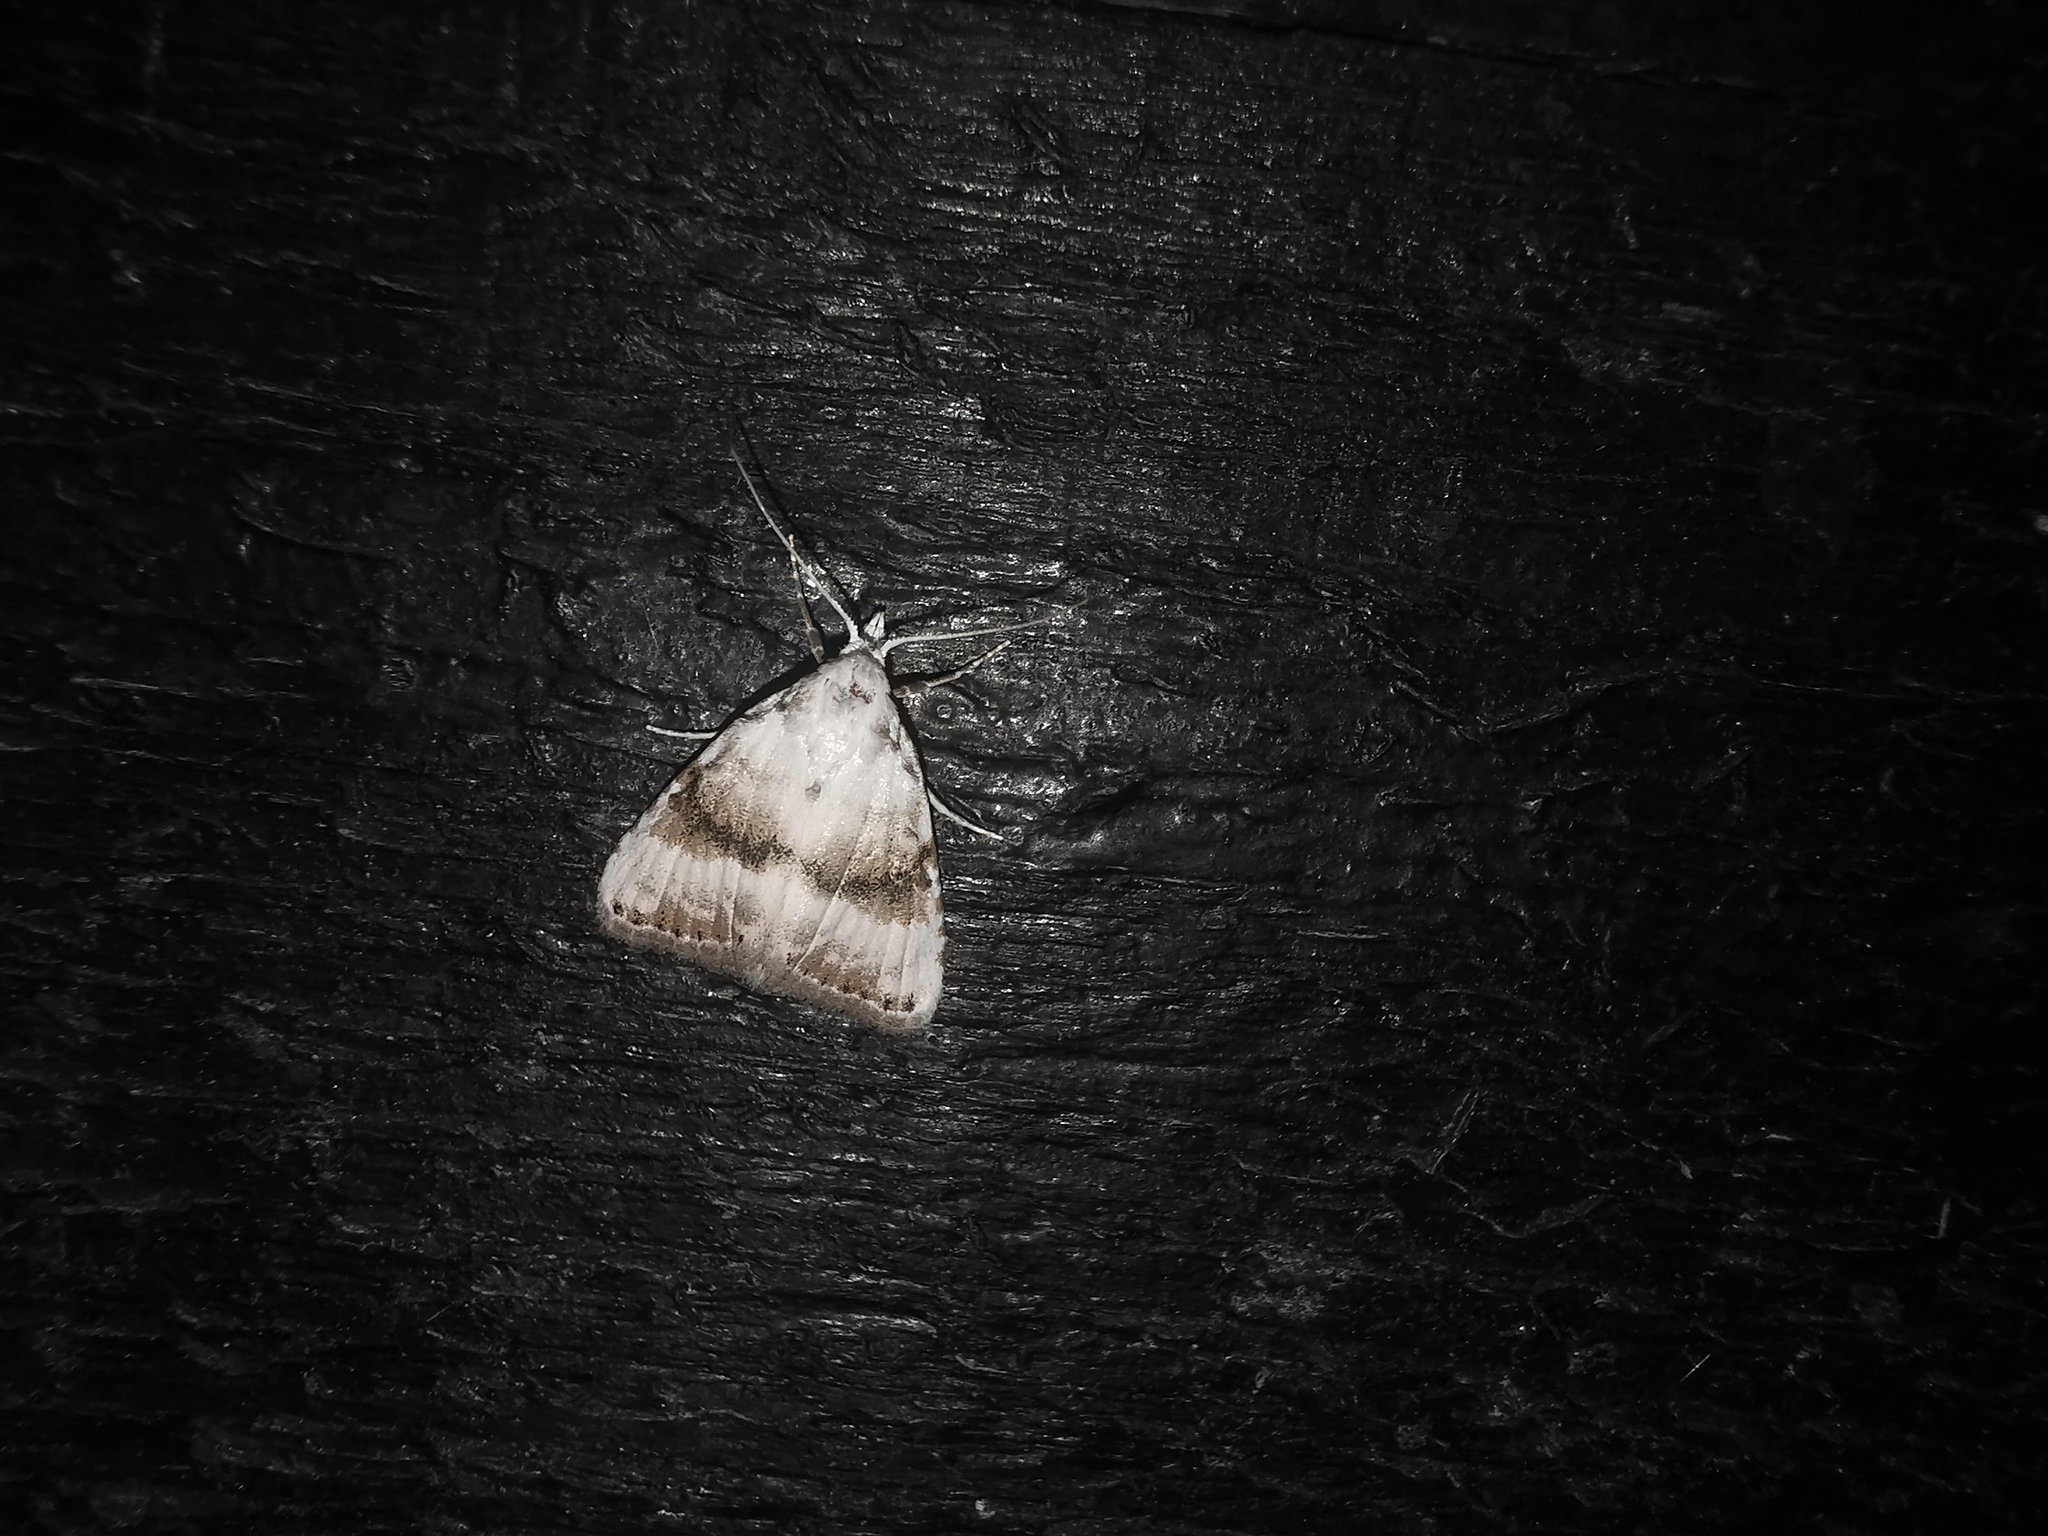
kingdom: Animalia
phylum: Arthropoda
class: Insecta
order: Lepidoptera
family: Nolidae
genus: Meganola
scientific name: Meganola albula
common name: Kent black arches
